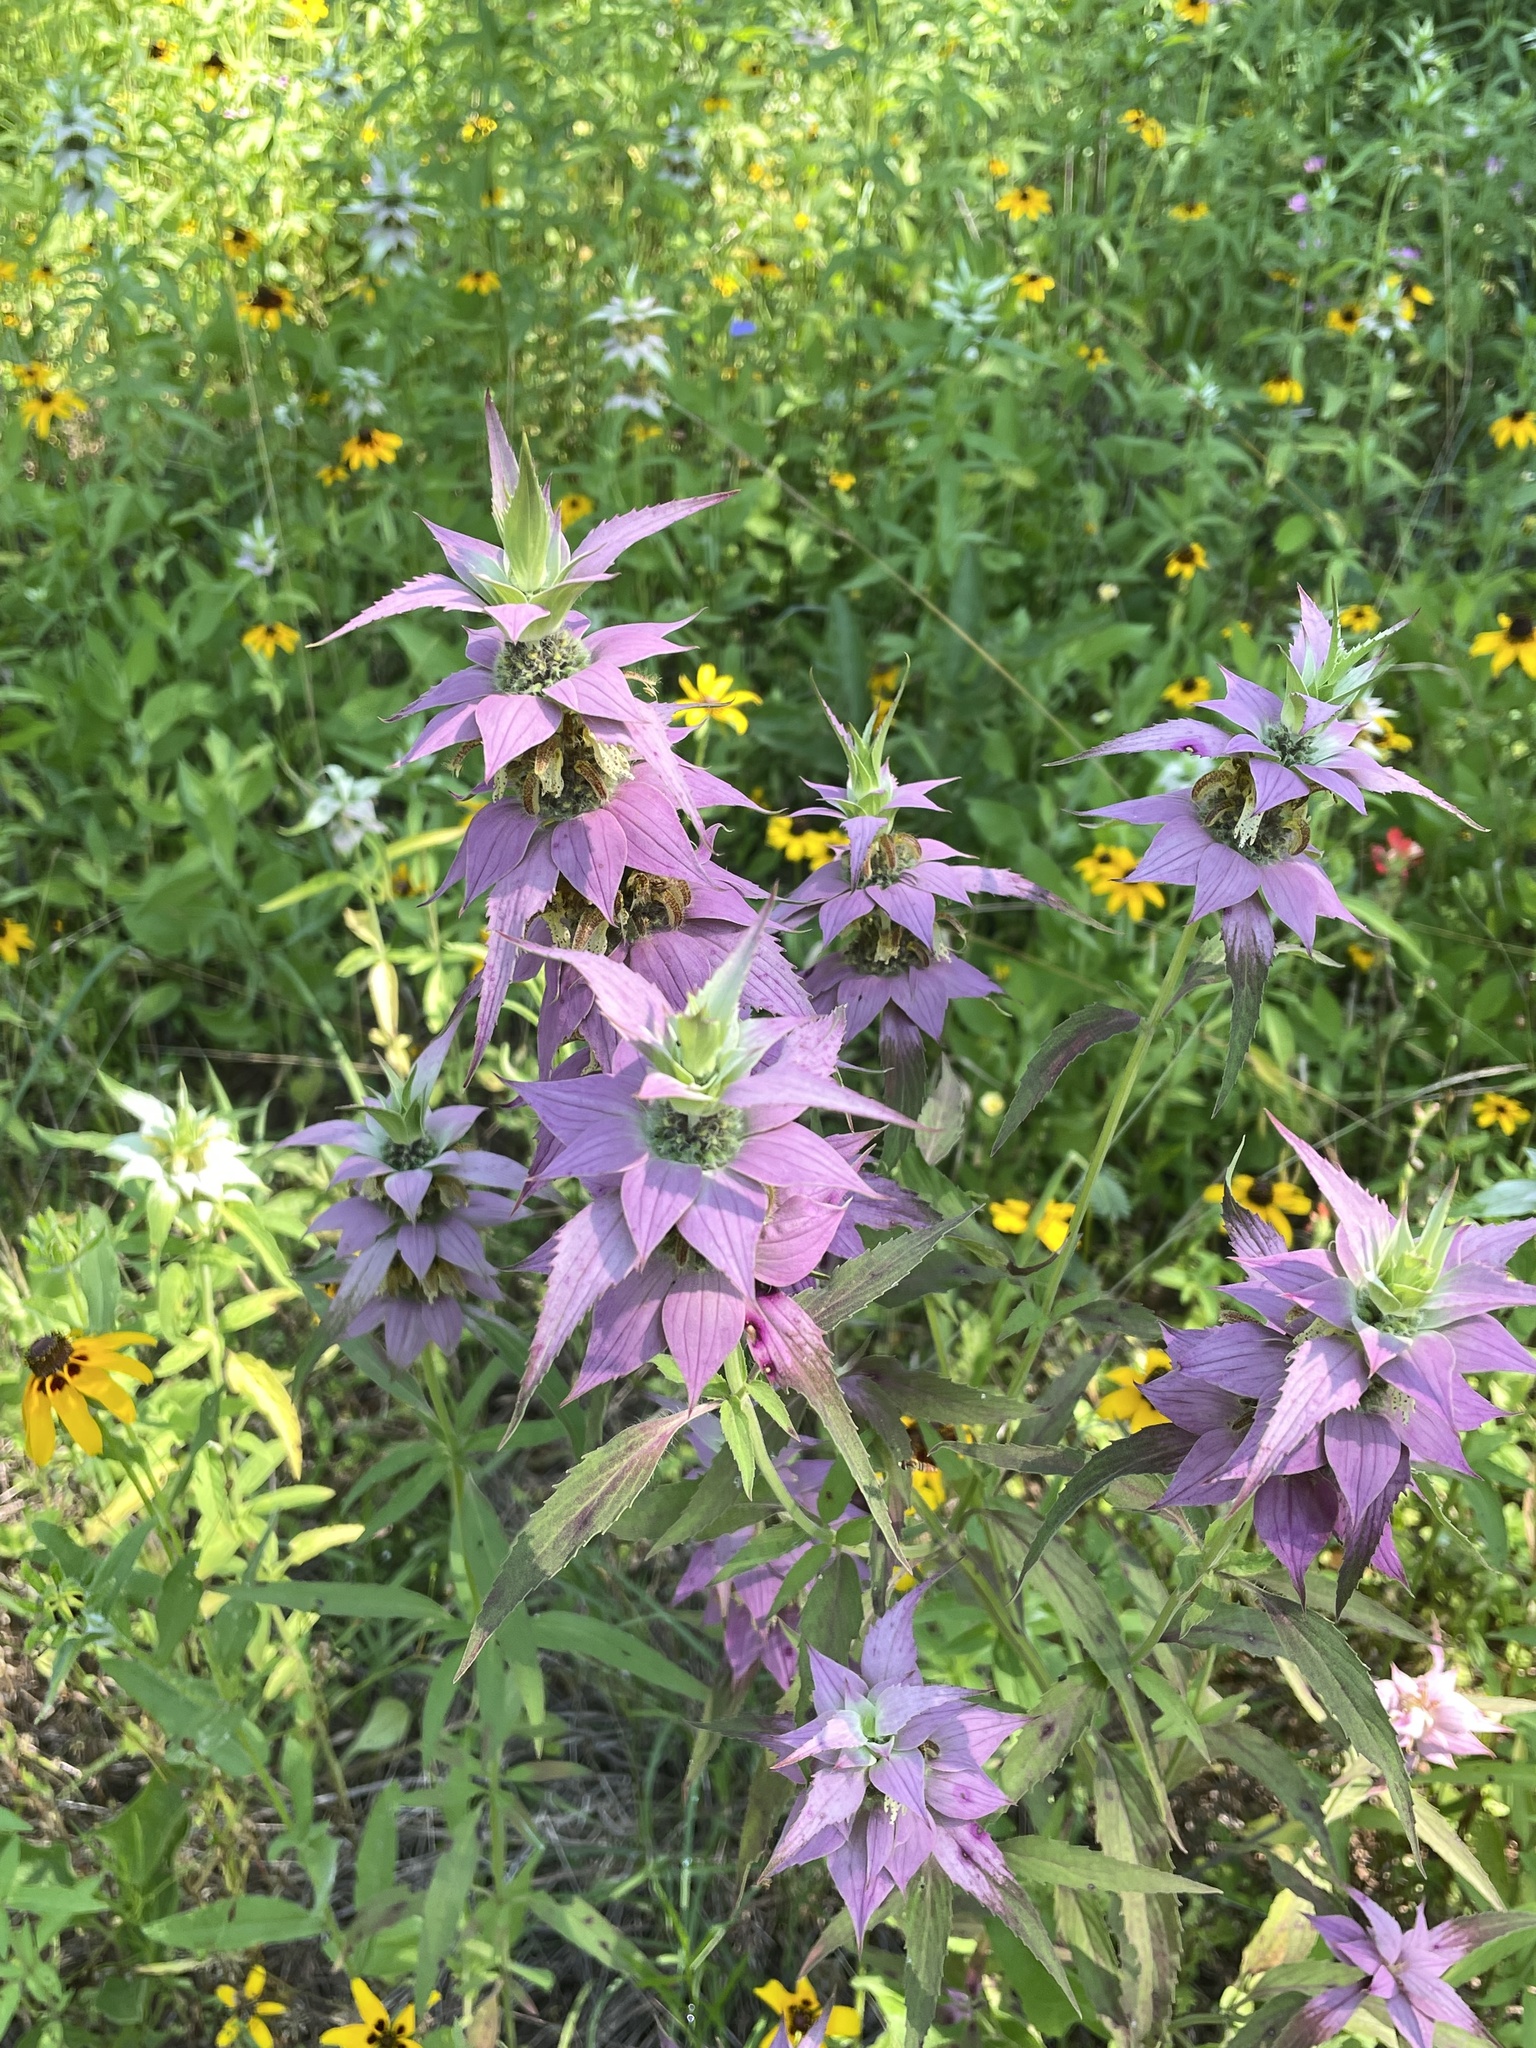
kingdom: Plantae
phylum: Tracheophyta
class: Magnoliopsida
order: Lamiales
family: Lamiaceae
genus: Monarda
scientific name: Monarda punctata
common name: Dotted monarda
